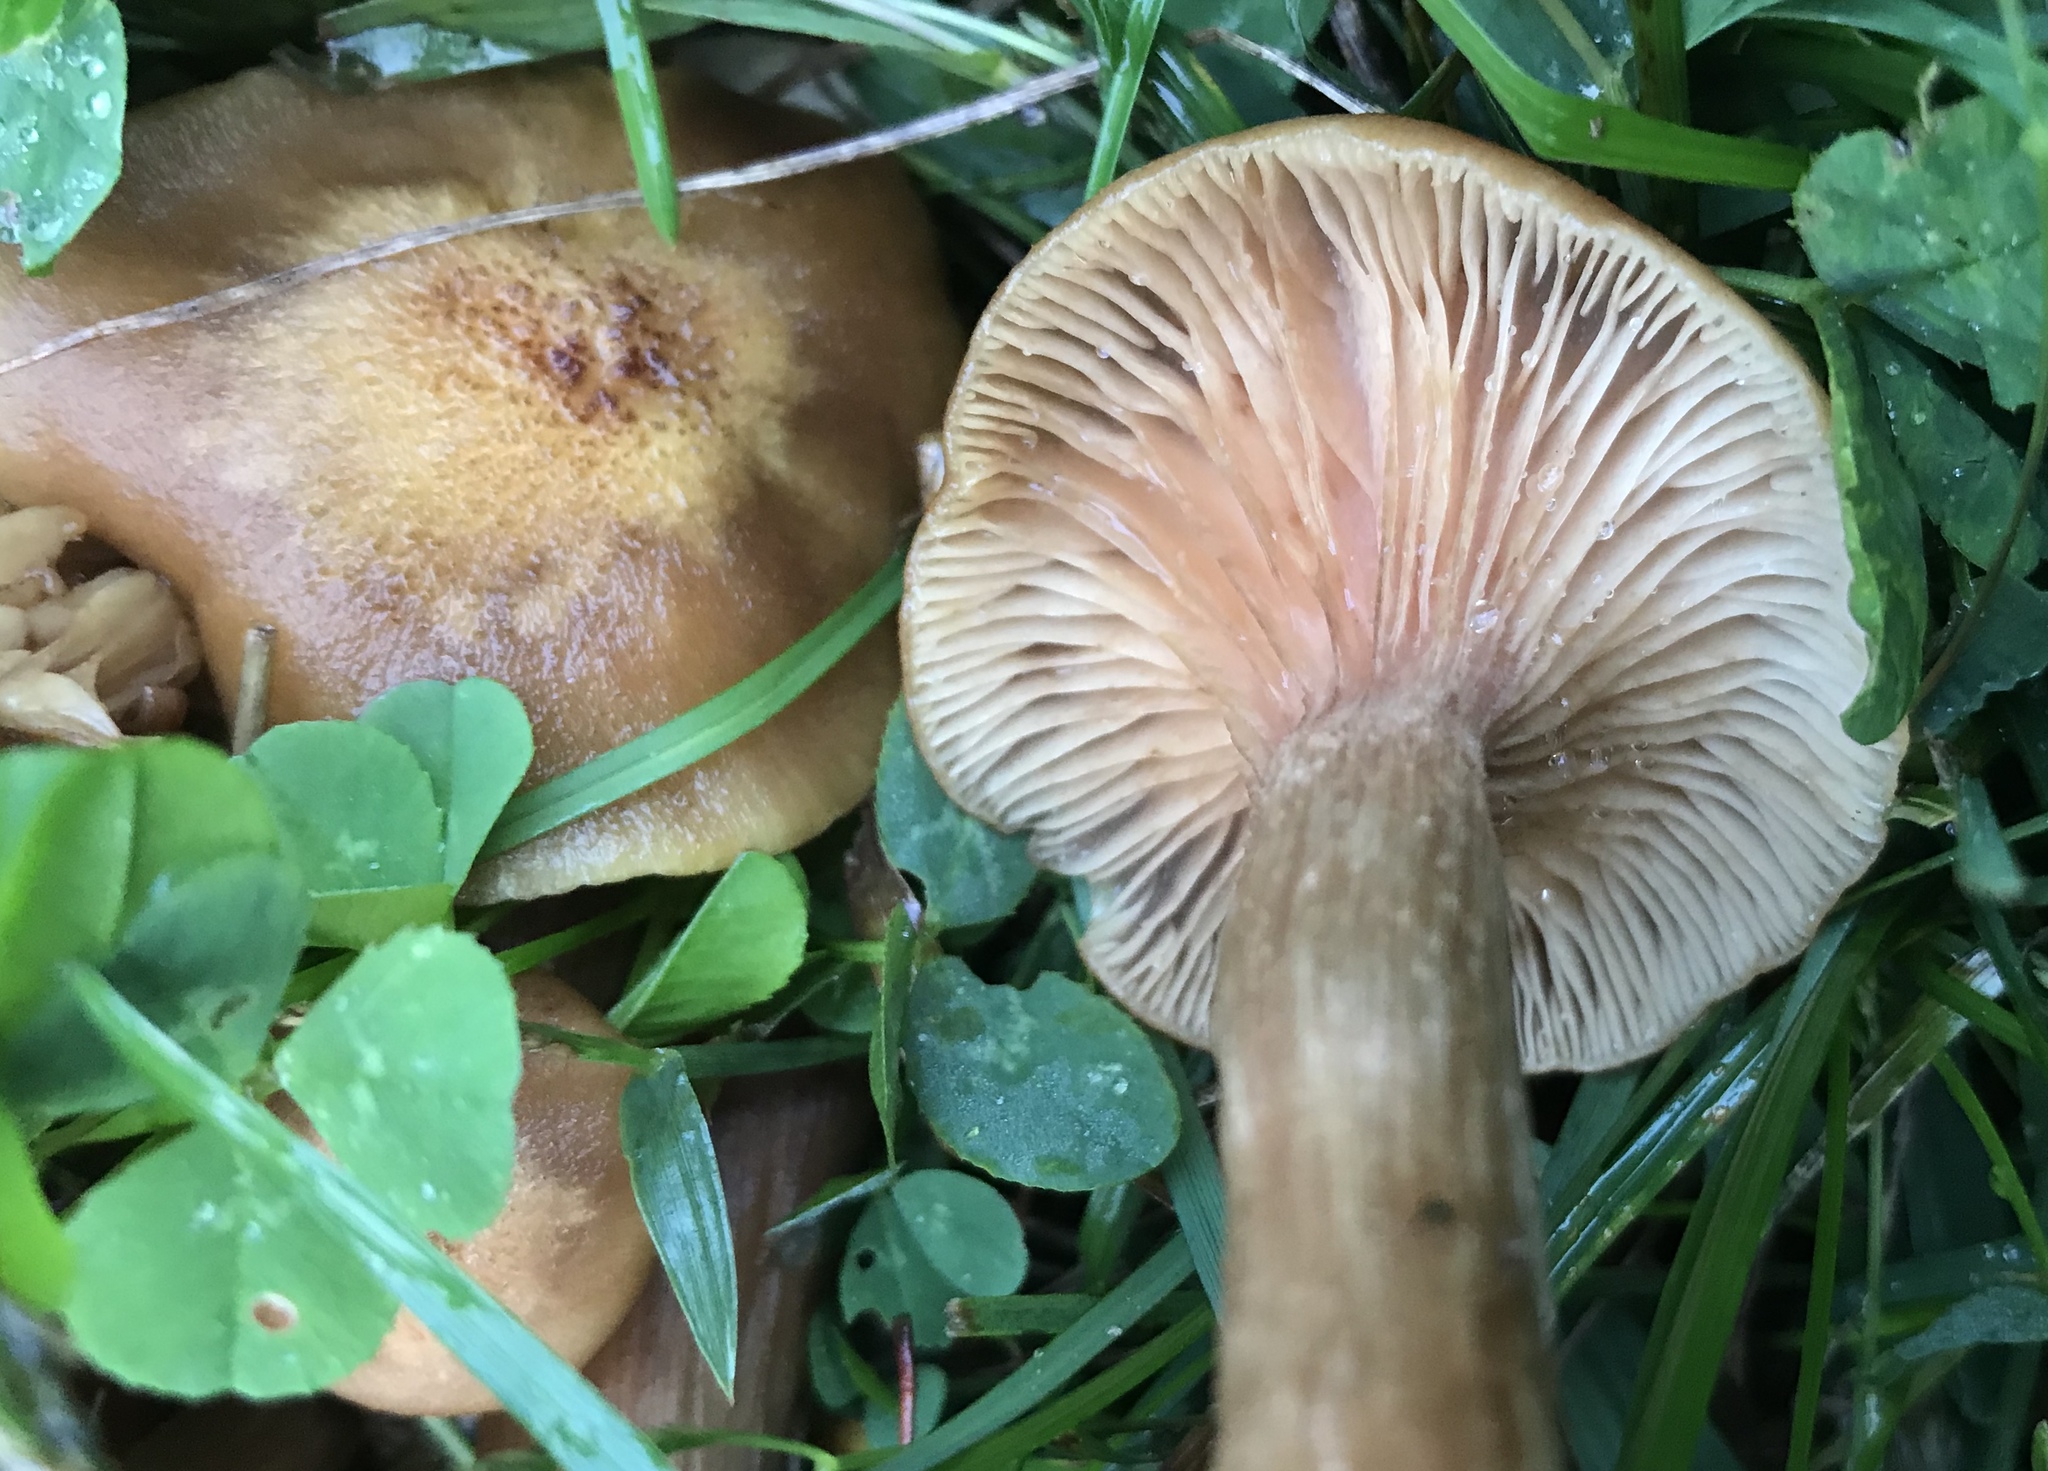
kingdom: Fungi
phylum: Basidiomycota
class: Agaricomycetes
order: Agaricales
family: Physalacriaceae
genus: Desarmillaria
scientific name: Desarmillaria caespitosa
